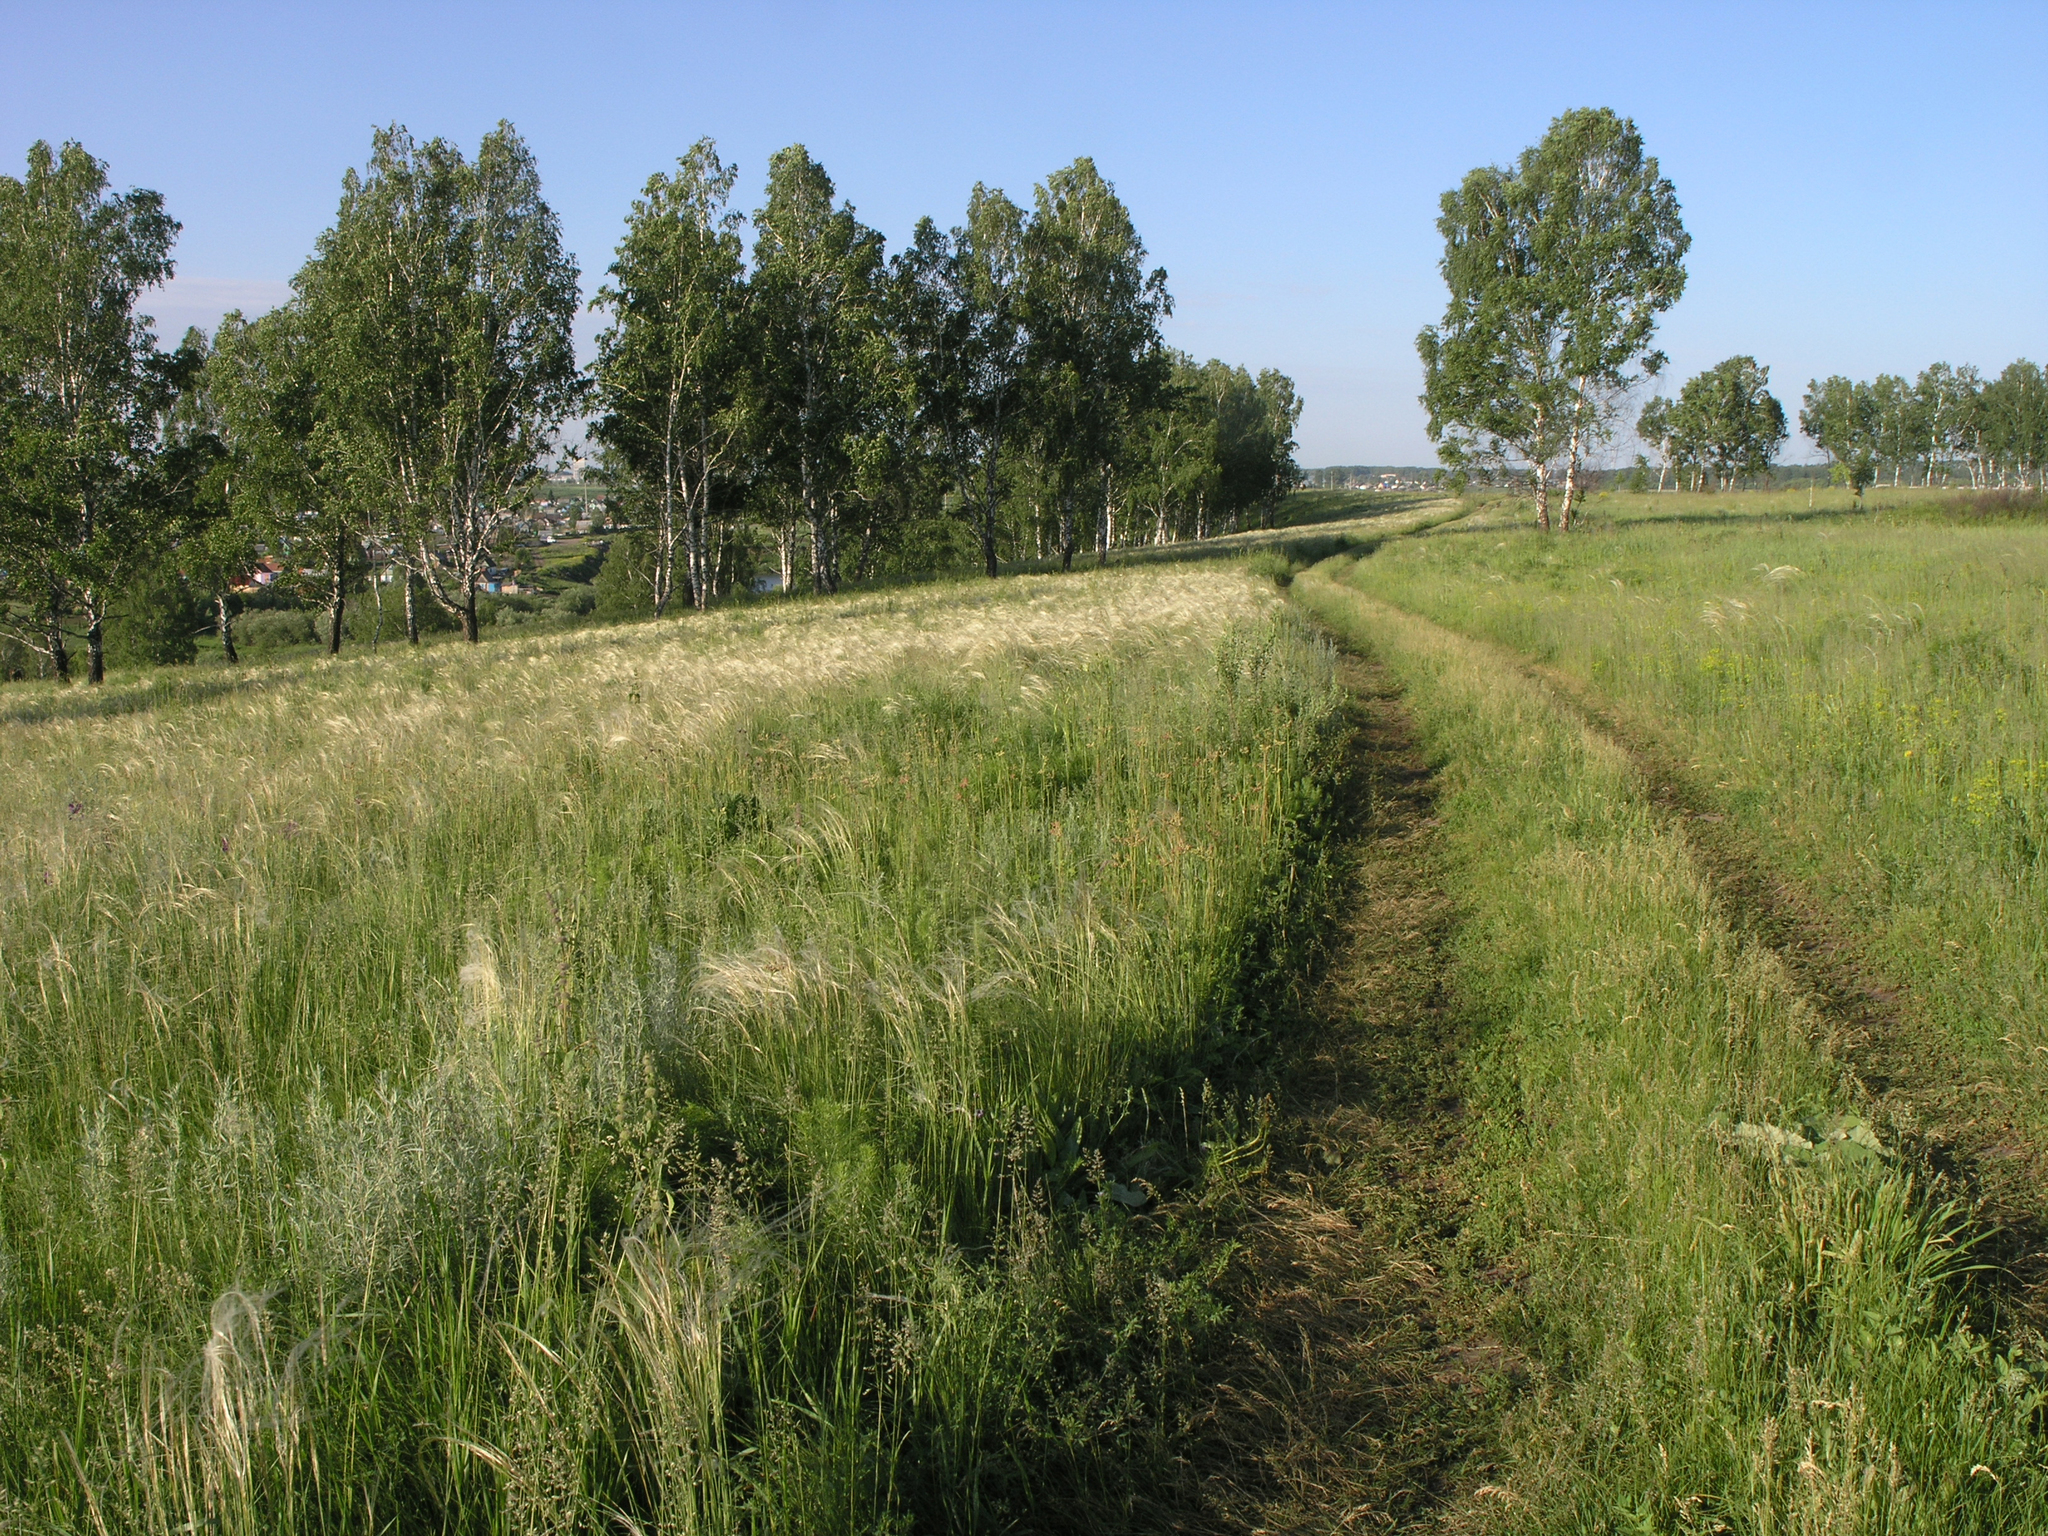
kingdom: Plantae
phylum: Tracheophyta
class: Magnoliopsida
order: Fagales
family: Betulaceae
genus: Betula
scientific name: Betula pendula
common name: Silver birch
